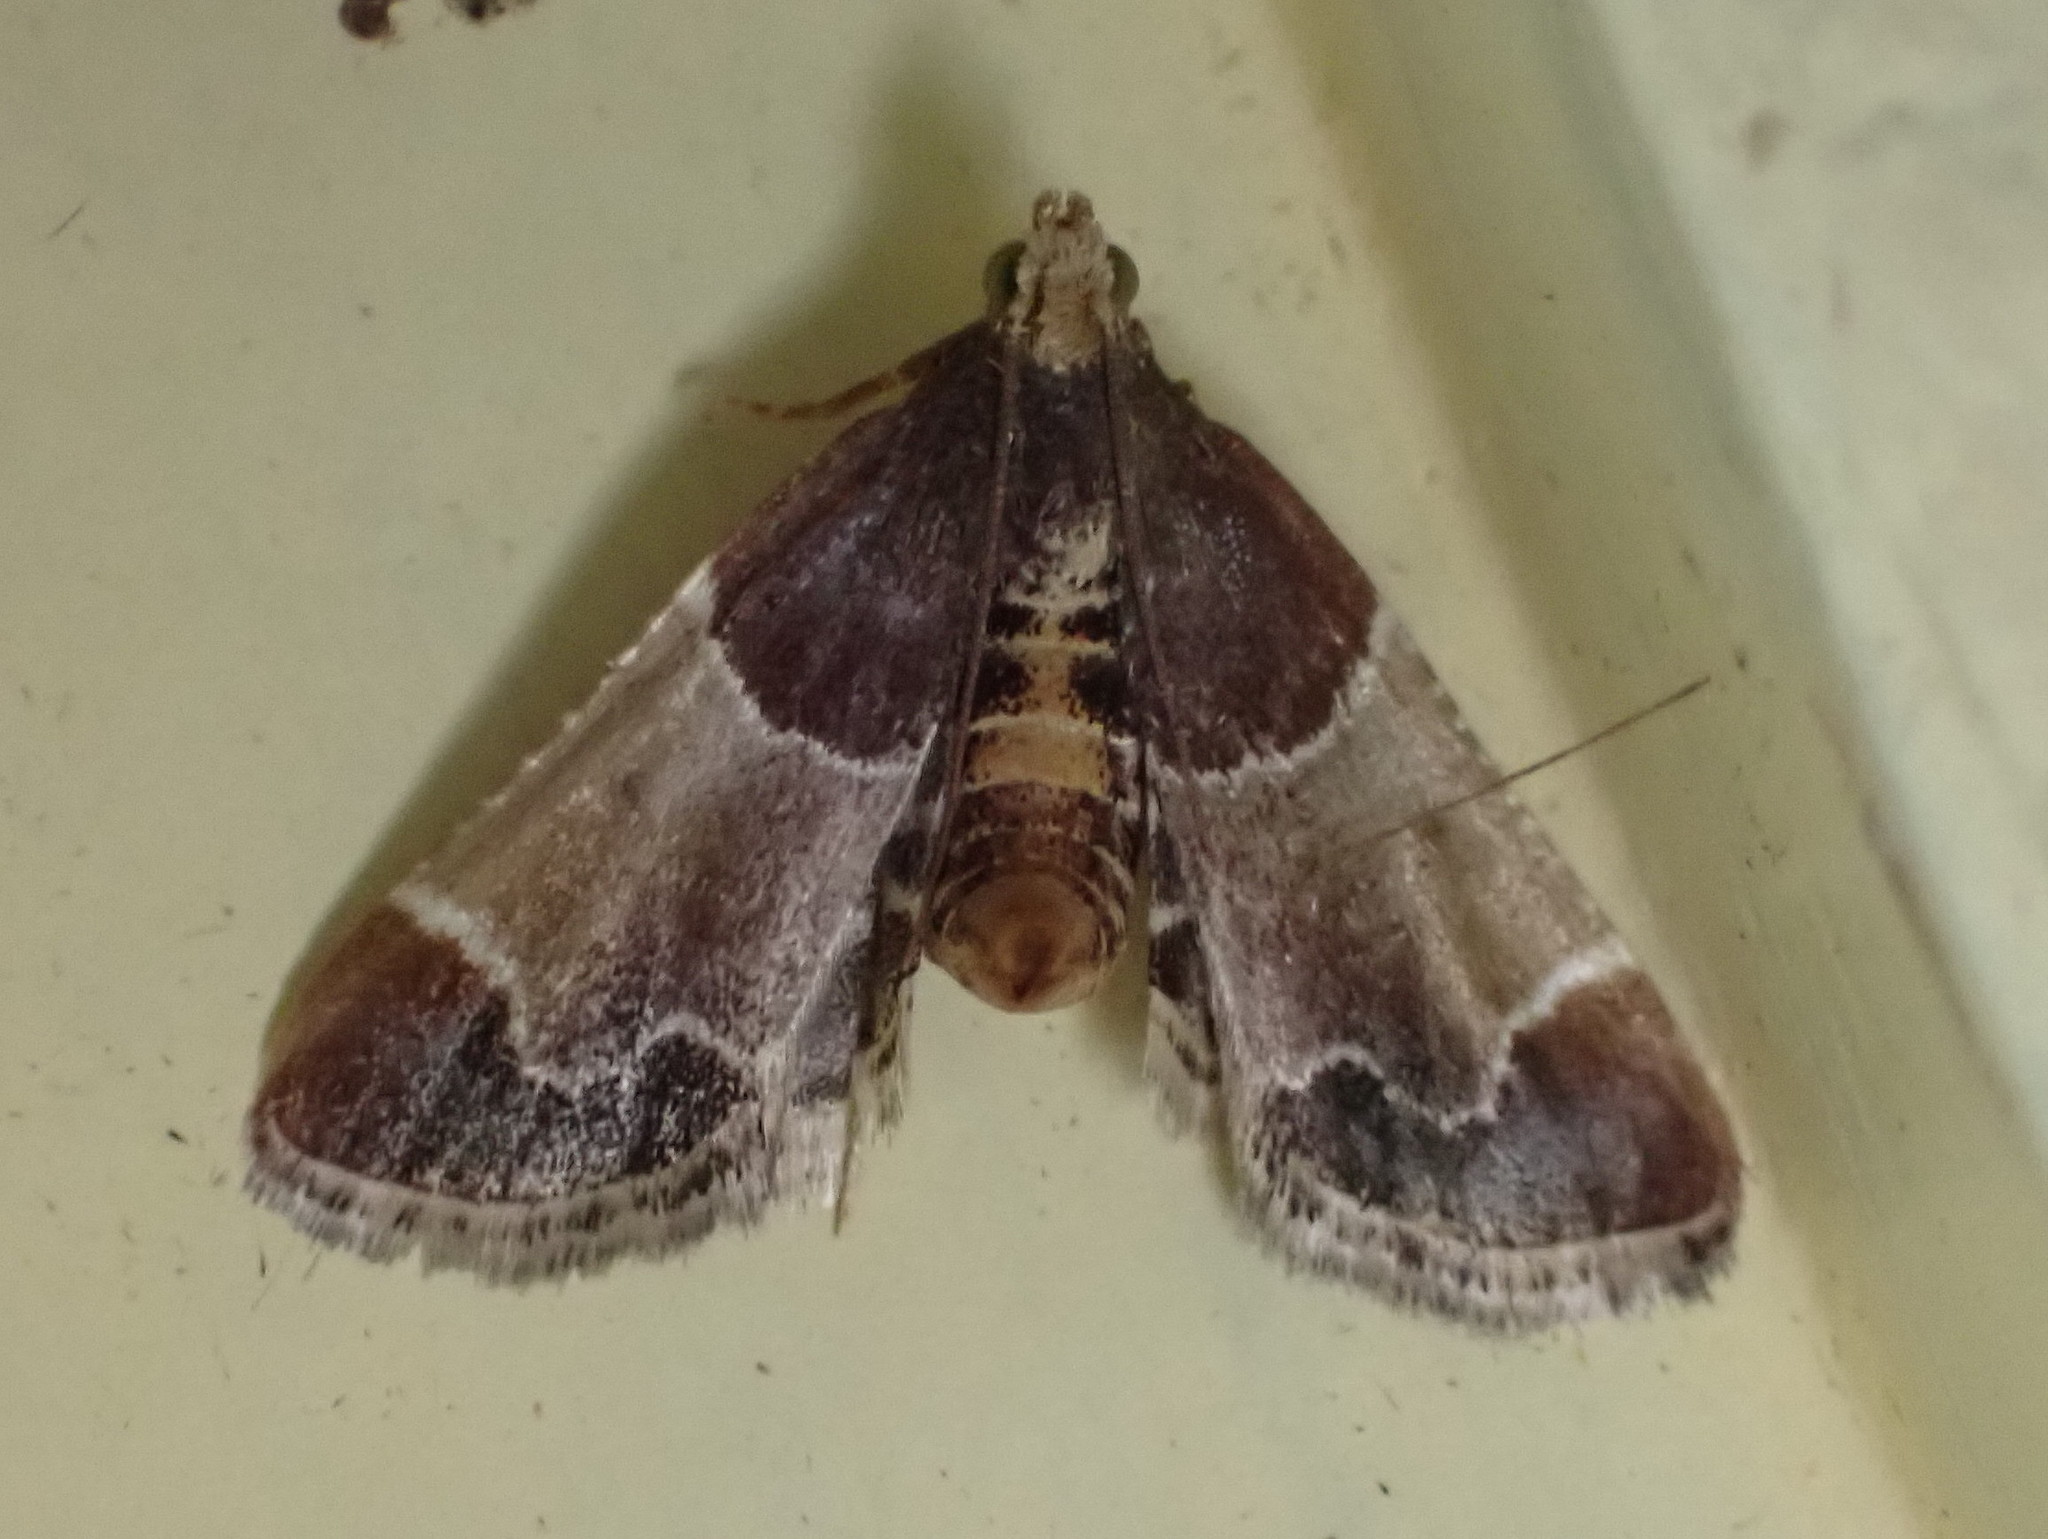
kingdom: Animalia
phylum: Arthropoda
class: Insecta
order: Lepidoptera
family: Pyralidae
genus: Pyralis
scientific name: Pyralis farinalis
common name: Meal moth
